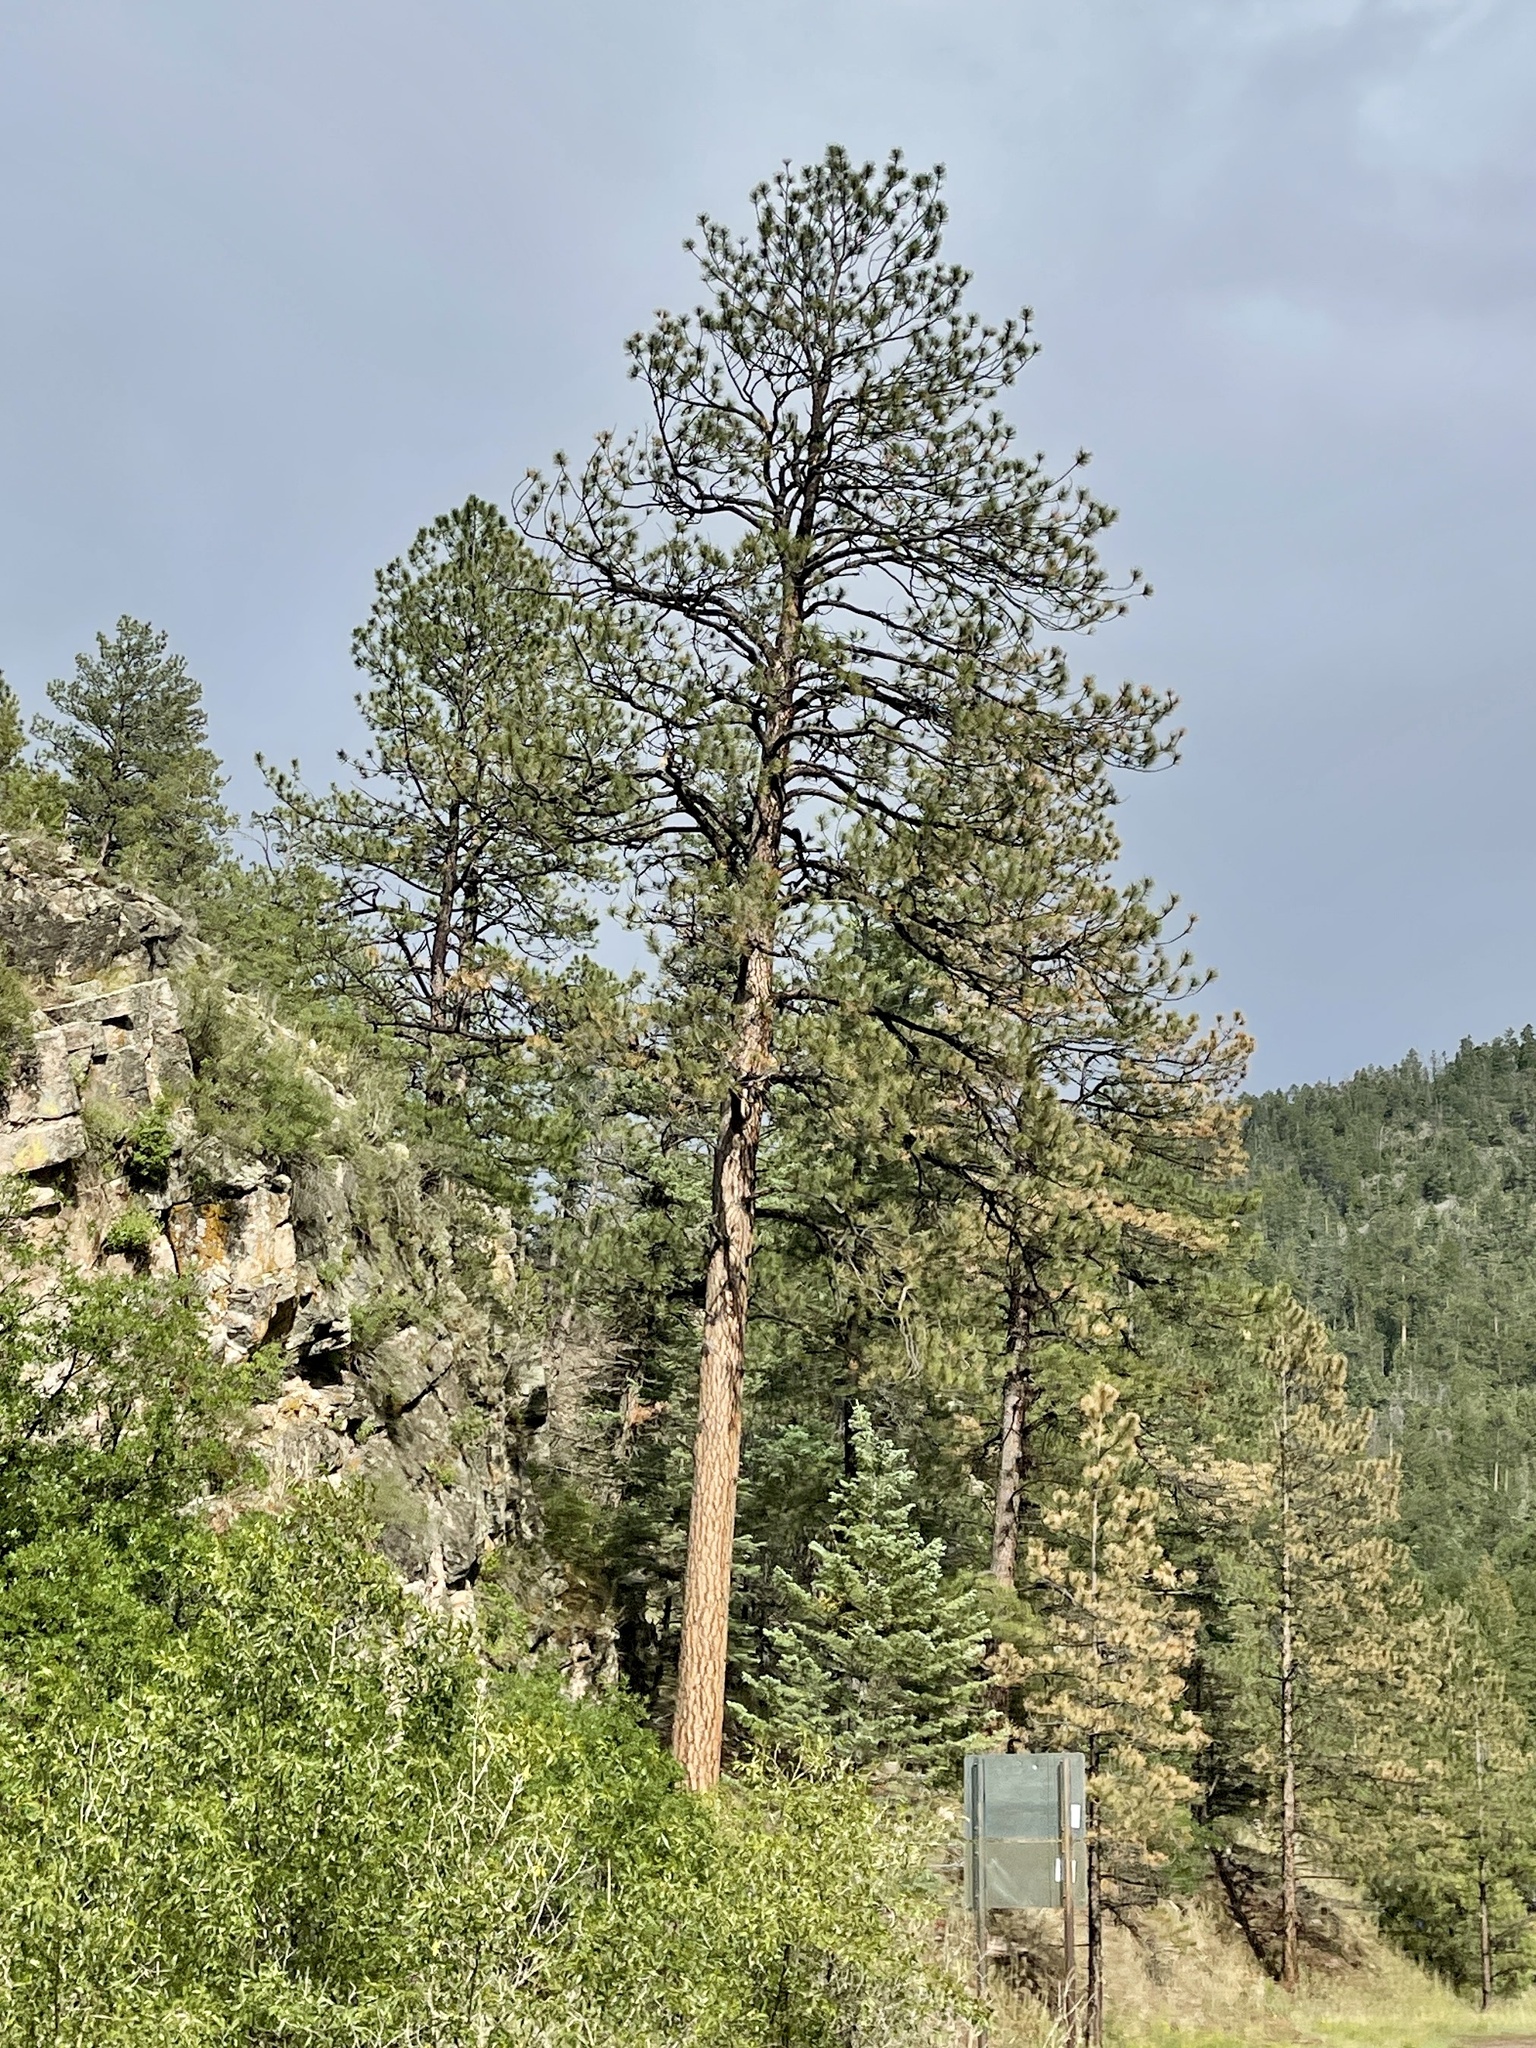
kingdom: Plantae
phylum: Tracheophyta
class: Pinopsida
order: Pinales
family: Pinaceae
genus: Pinus
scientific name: Pinus ponderosa
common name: Western yellow-pine
